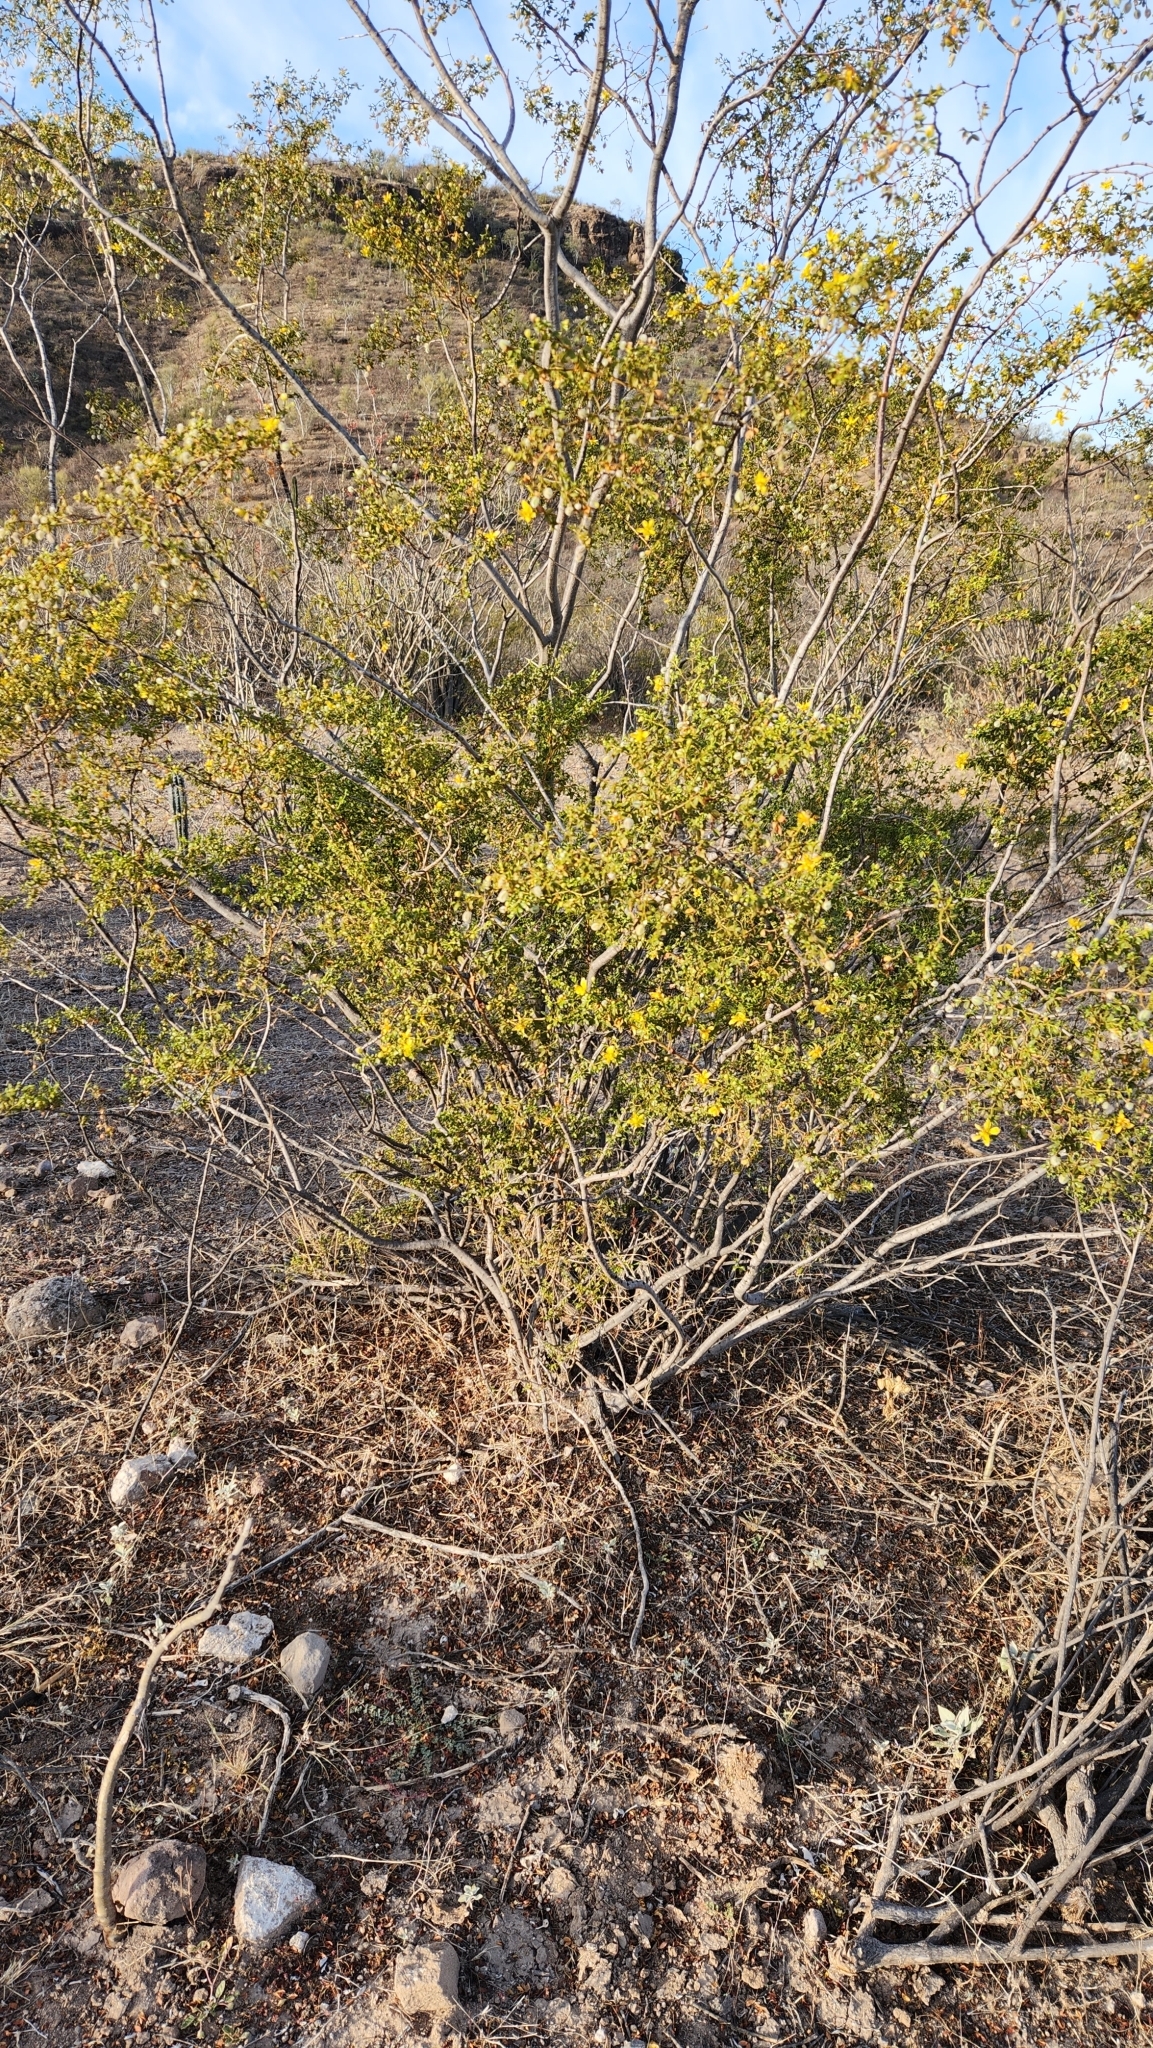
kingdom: Plantae
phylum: Tracheophyta
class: Magnoliopsida
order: Zygophyllales
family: Zygophyllaceae
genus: Larrea
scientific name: Larrea tridentata
